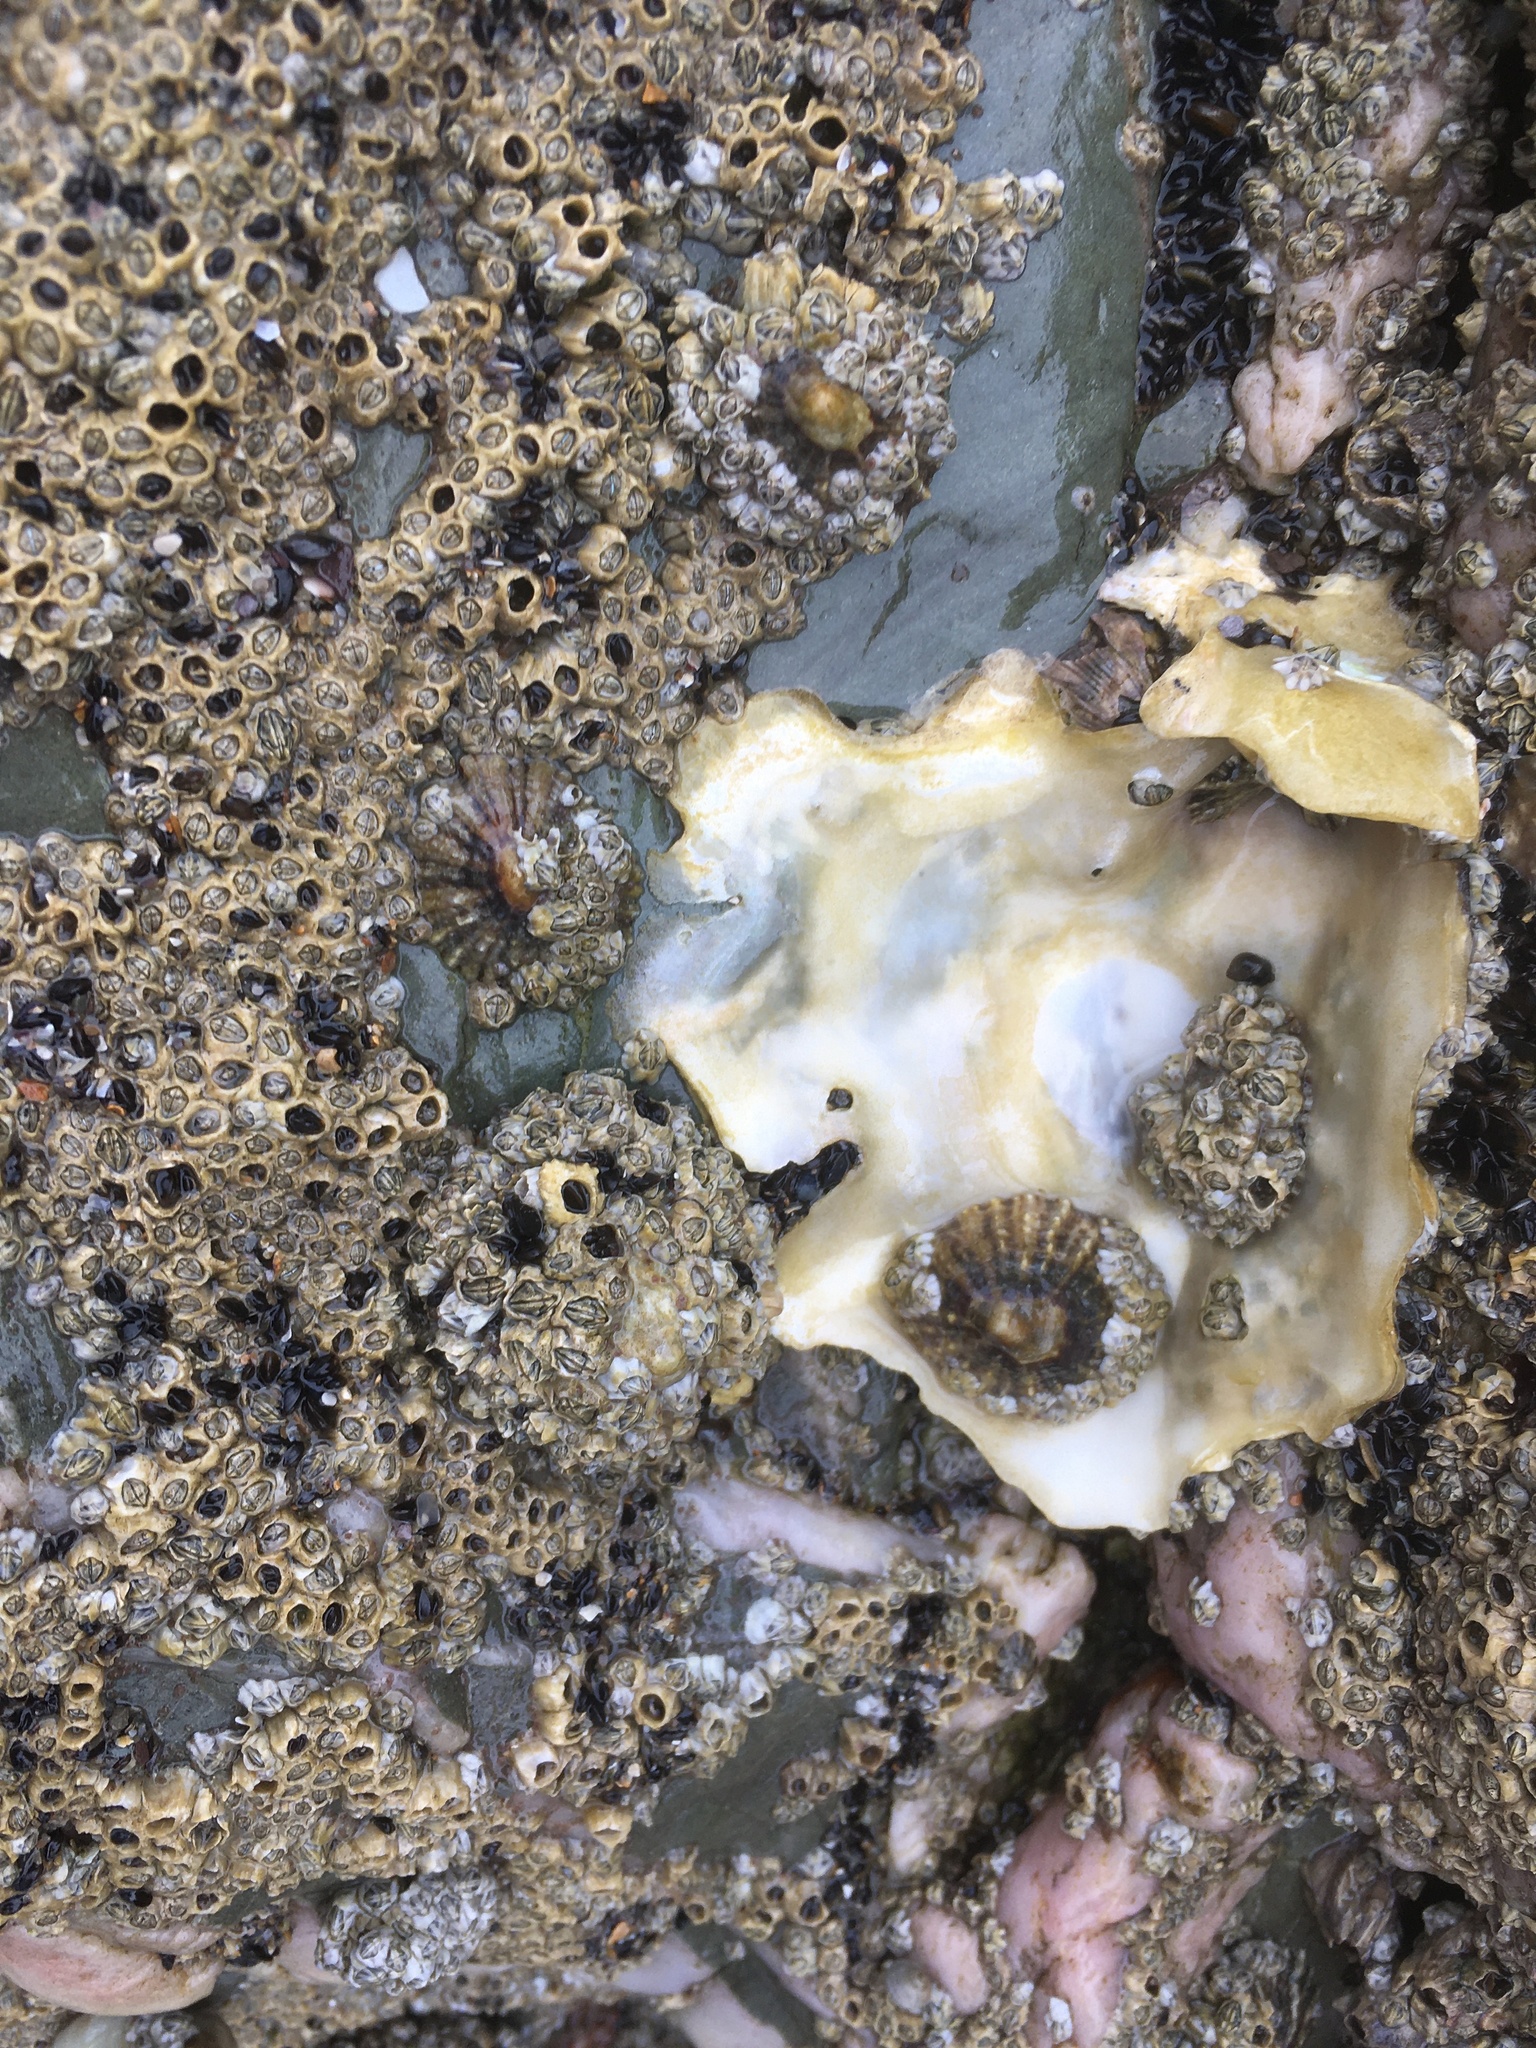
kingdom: Animalia
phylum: Mollusca
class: Bivalvia
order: Ostreida
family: Ostreidae
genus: Magallana
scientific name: Magallana gigas
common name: Pacific oyster
